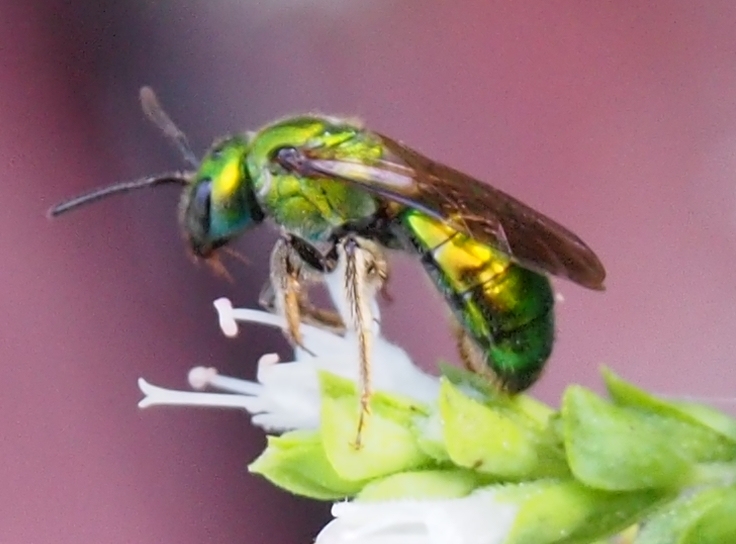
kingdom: Animalia
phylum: Arthropoda
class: Insecta
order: Hymenoptera
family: Halictidae
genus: Augochlora
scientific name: Augochlora pura
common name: Pure green sweat bee
